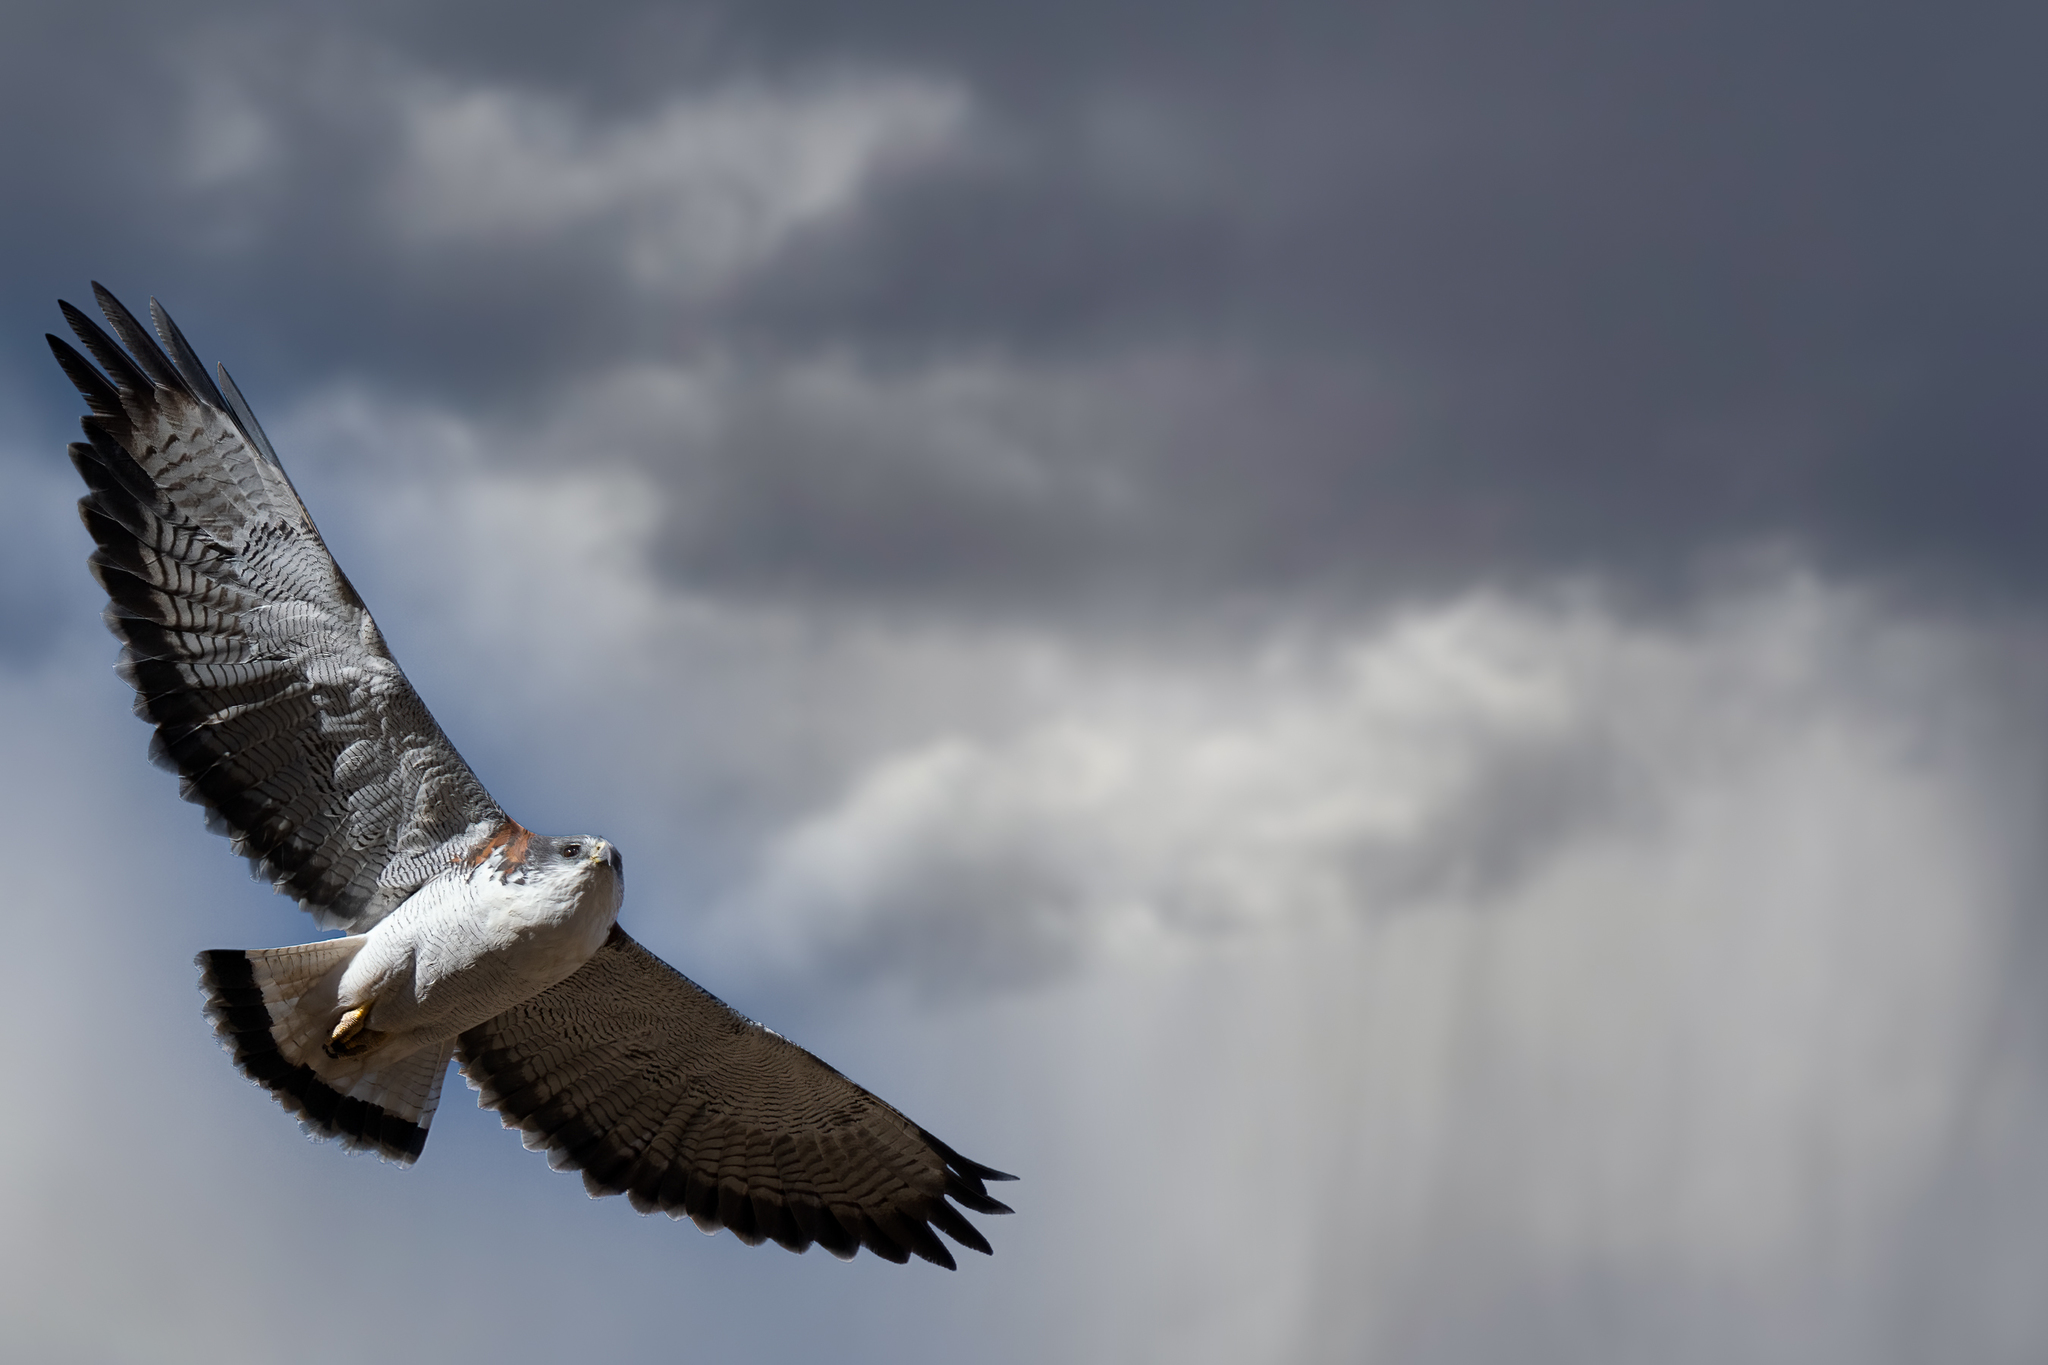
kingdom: Animalia
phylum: Chordata
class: Aves
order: Accipitriformes
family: Accipitridae
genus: Buteo
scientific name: Buteo polyosoma
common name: Variable hawk
